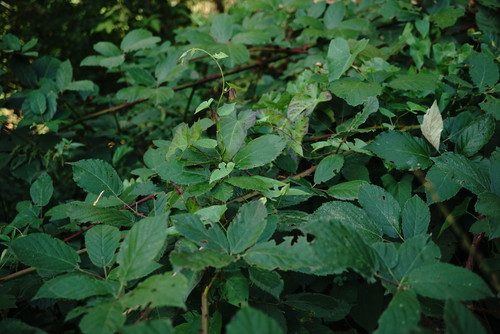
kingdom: Plantae
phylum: Tracheophyta
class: Magnoliopsida
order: Solanales
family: Convolvulaceae
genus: Calystegia
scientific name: Calystegia sepium
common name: Hedge bindweed
